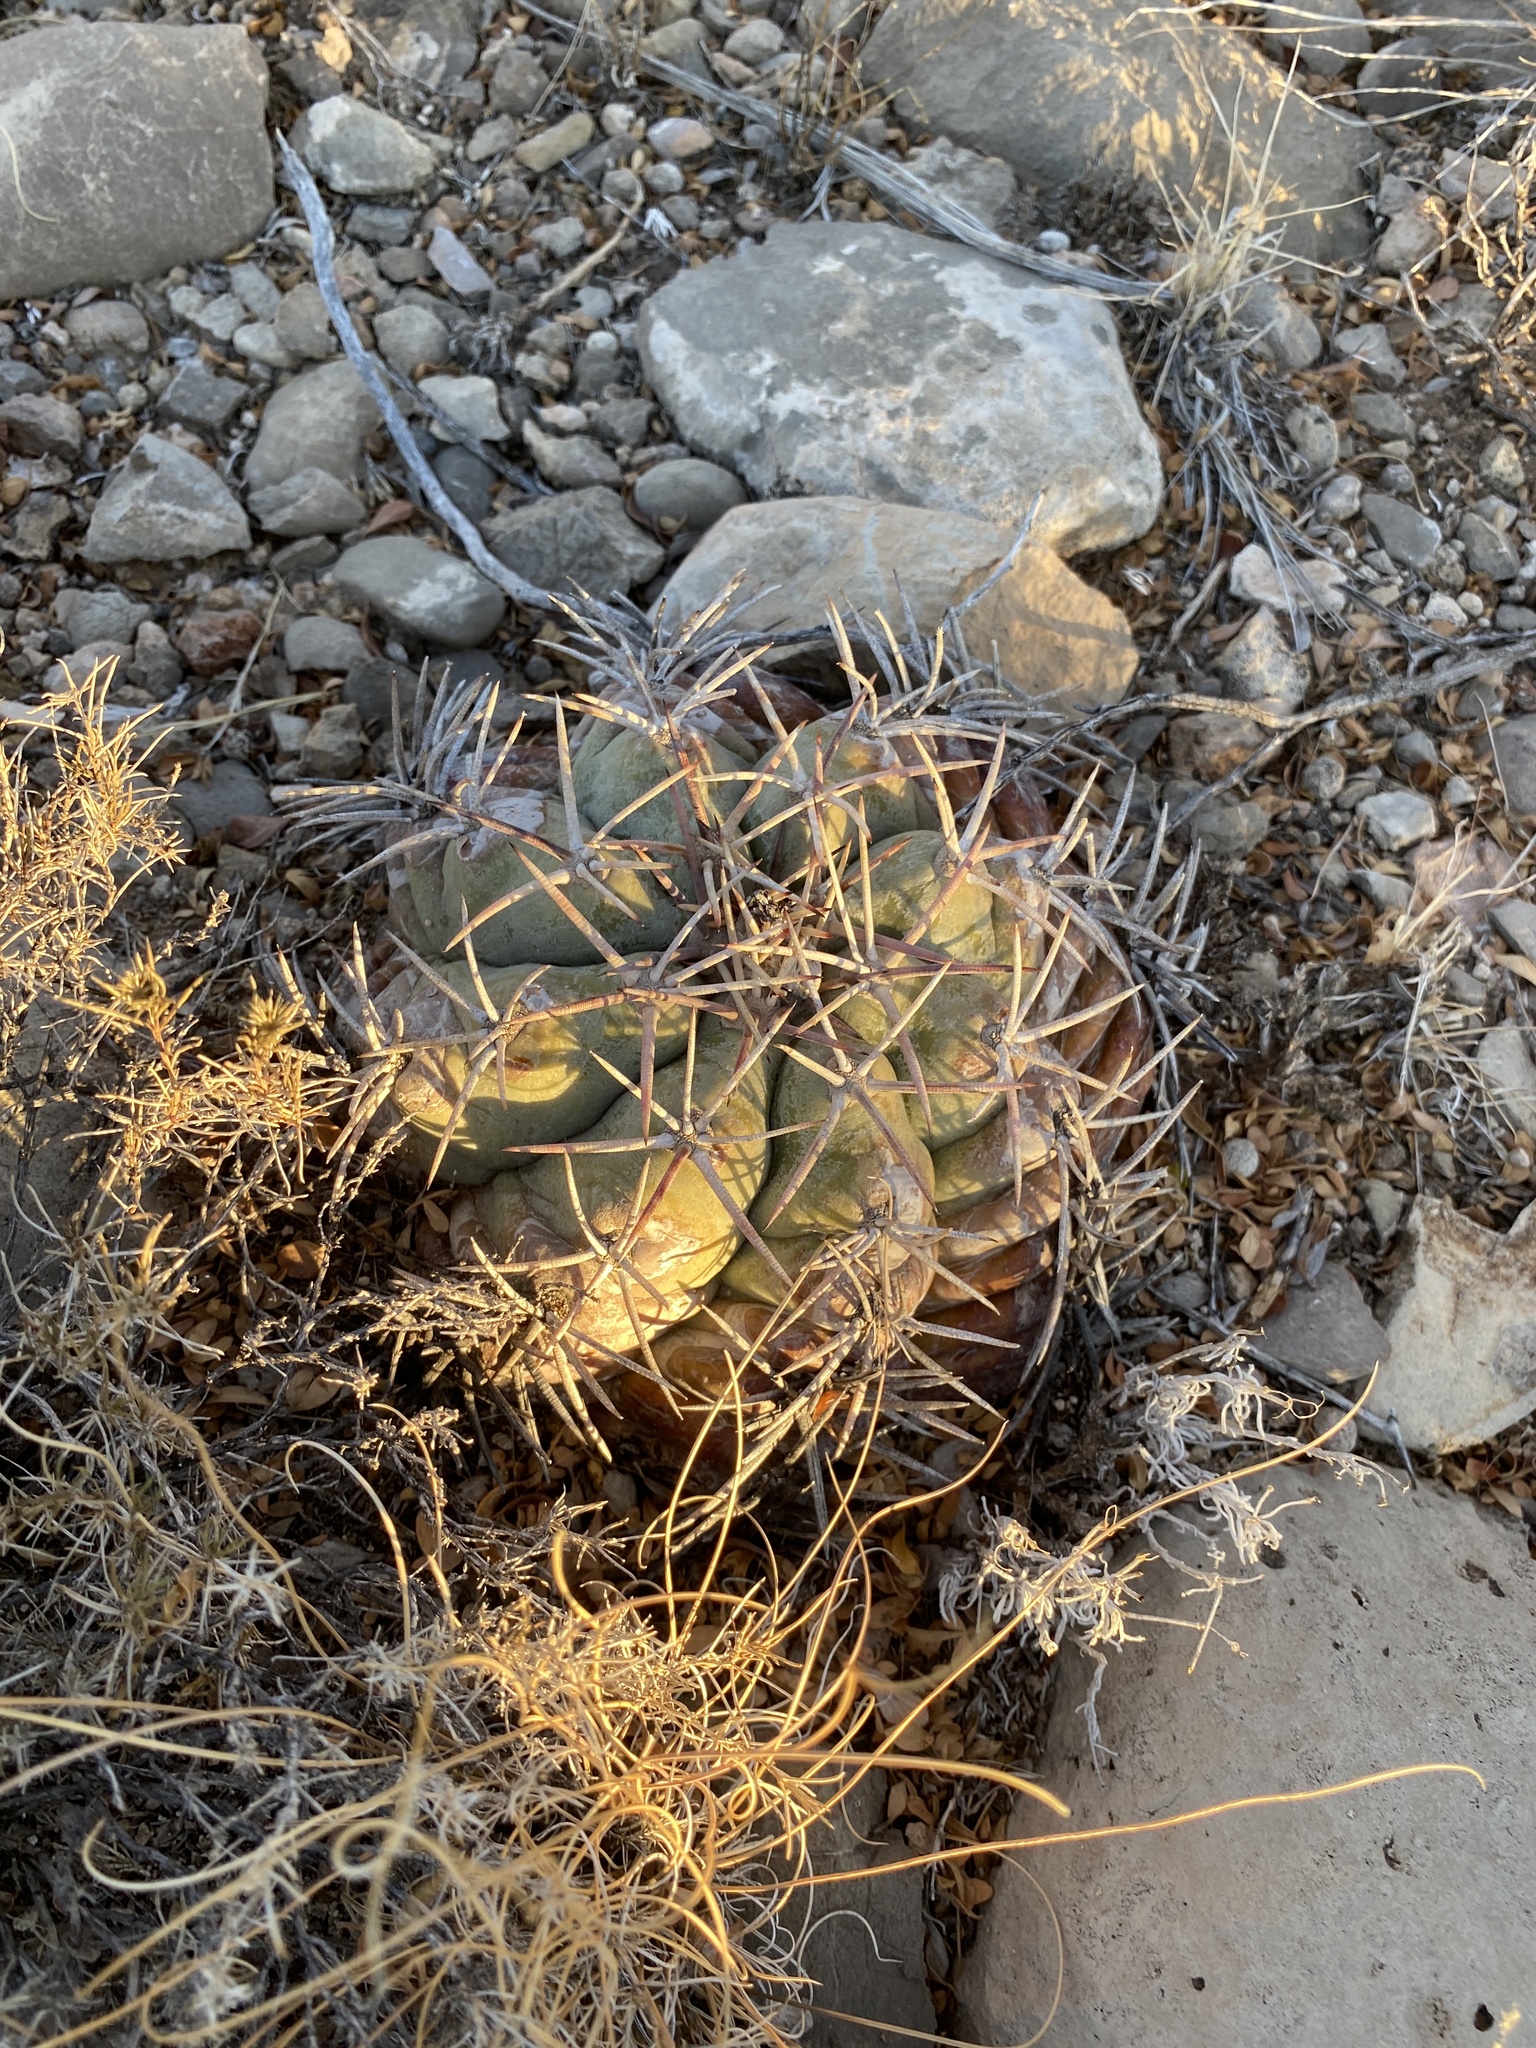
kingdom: Plantae
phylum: Tracheophyta
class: Magnoliopsida
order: Caryophyllales
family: Cactaceae
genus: Echinocactus
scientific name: Echinocactus horizonthalonius
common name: Devilshead
